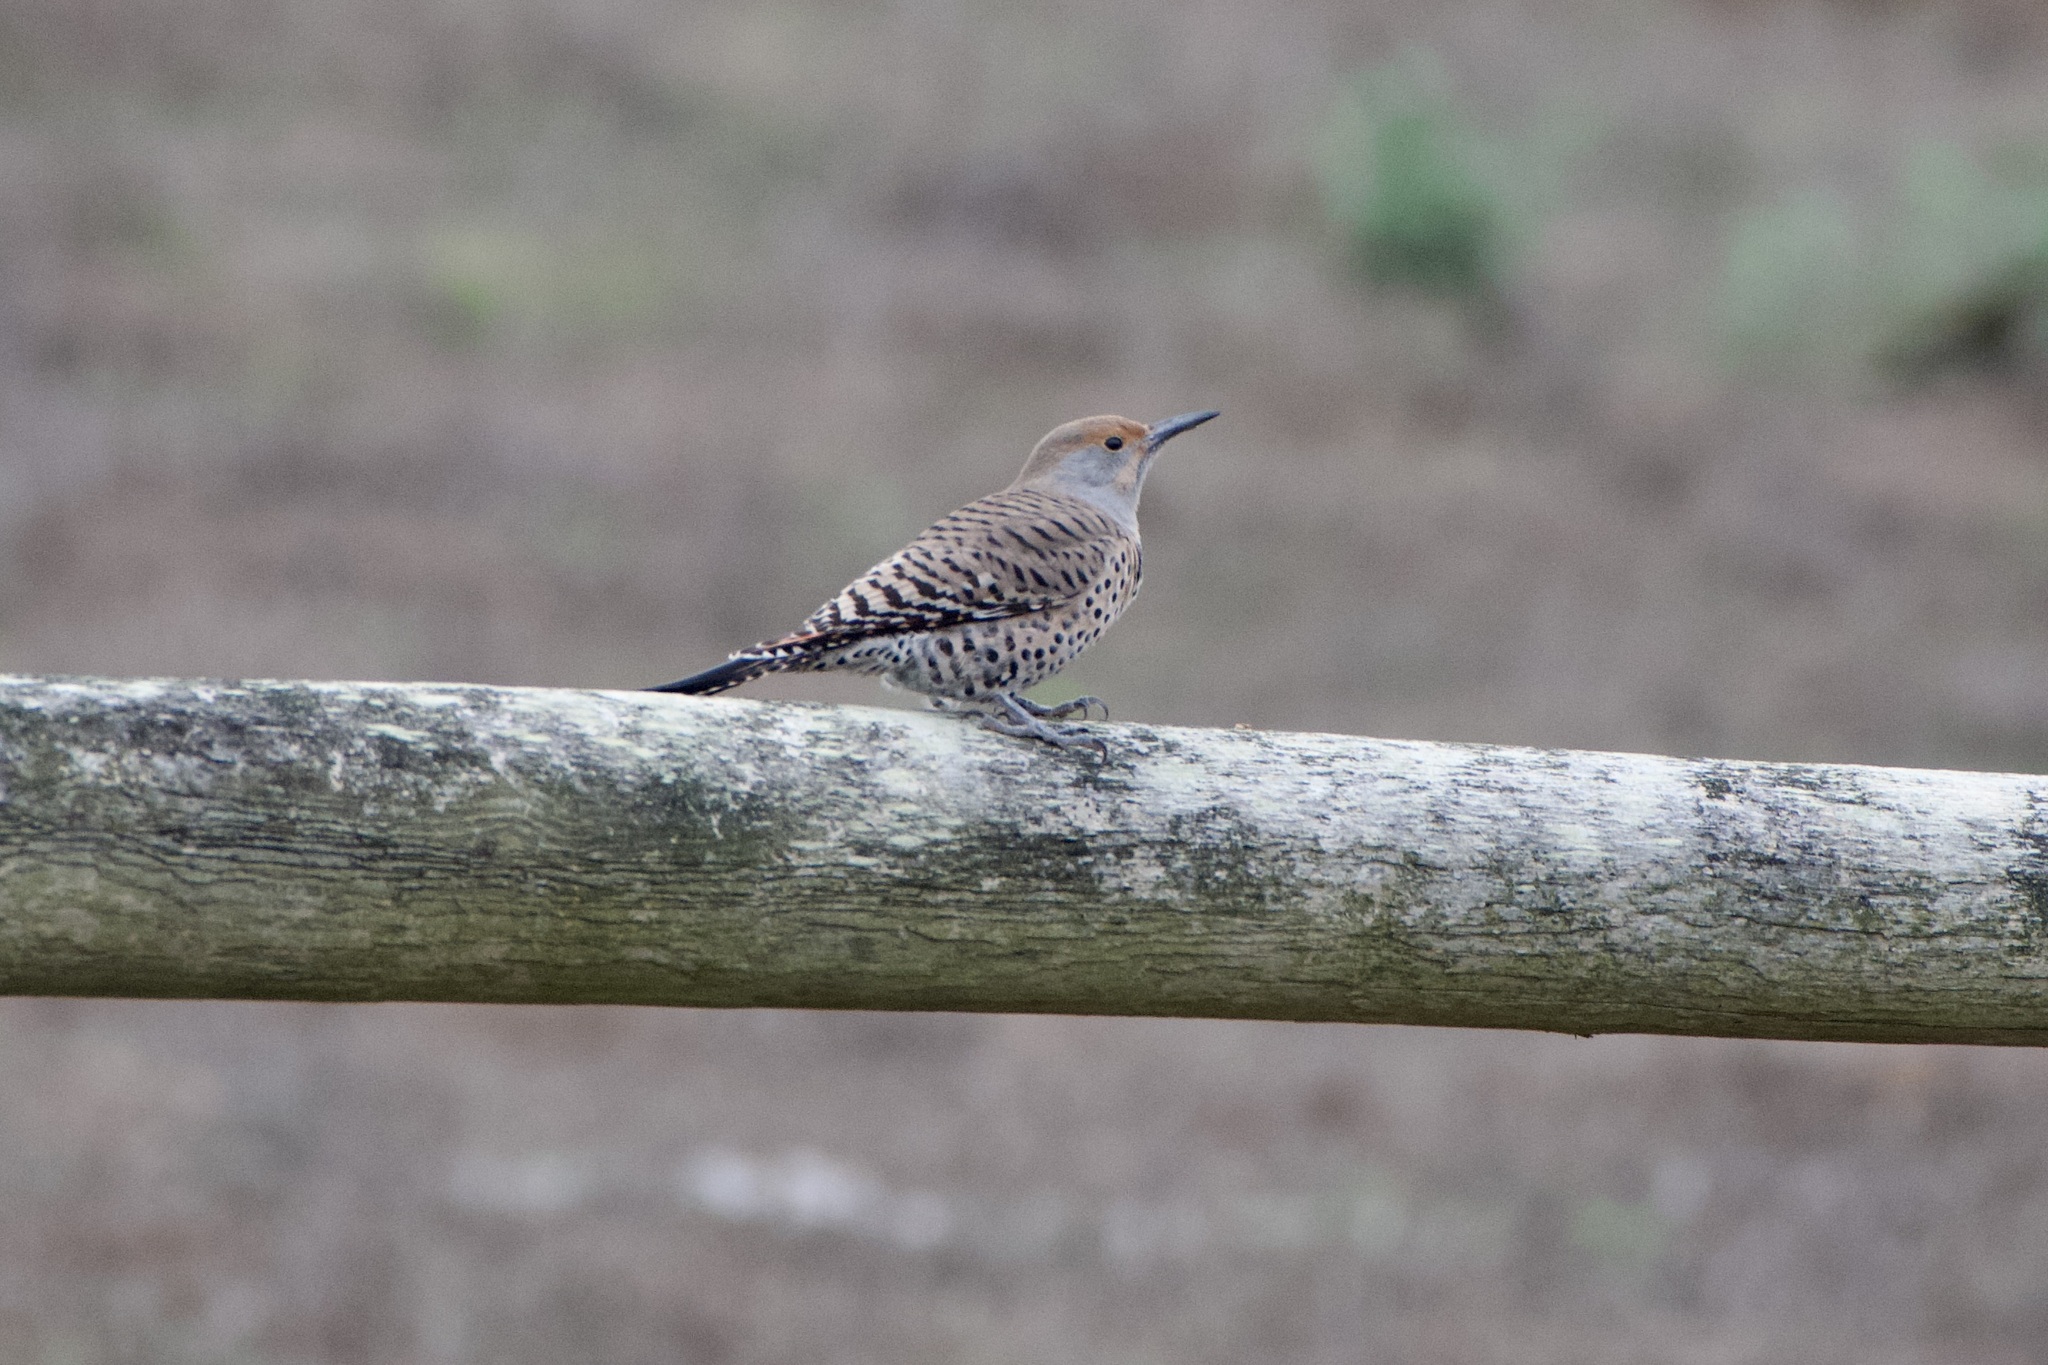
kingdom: Animalia
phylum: Chordata
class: Aves
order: Piciformes
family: Picidae
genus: Colaptes
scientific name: Colaptes auratus
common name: Northern flicker
